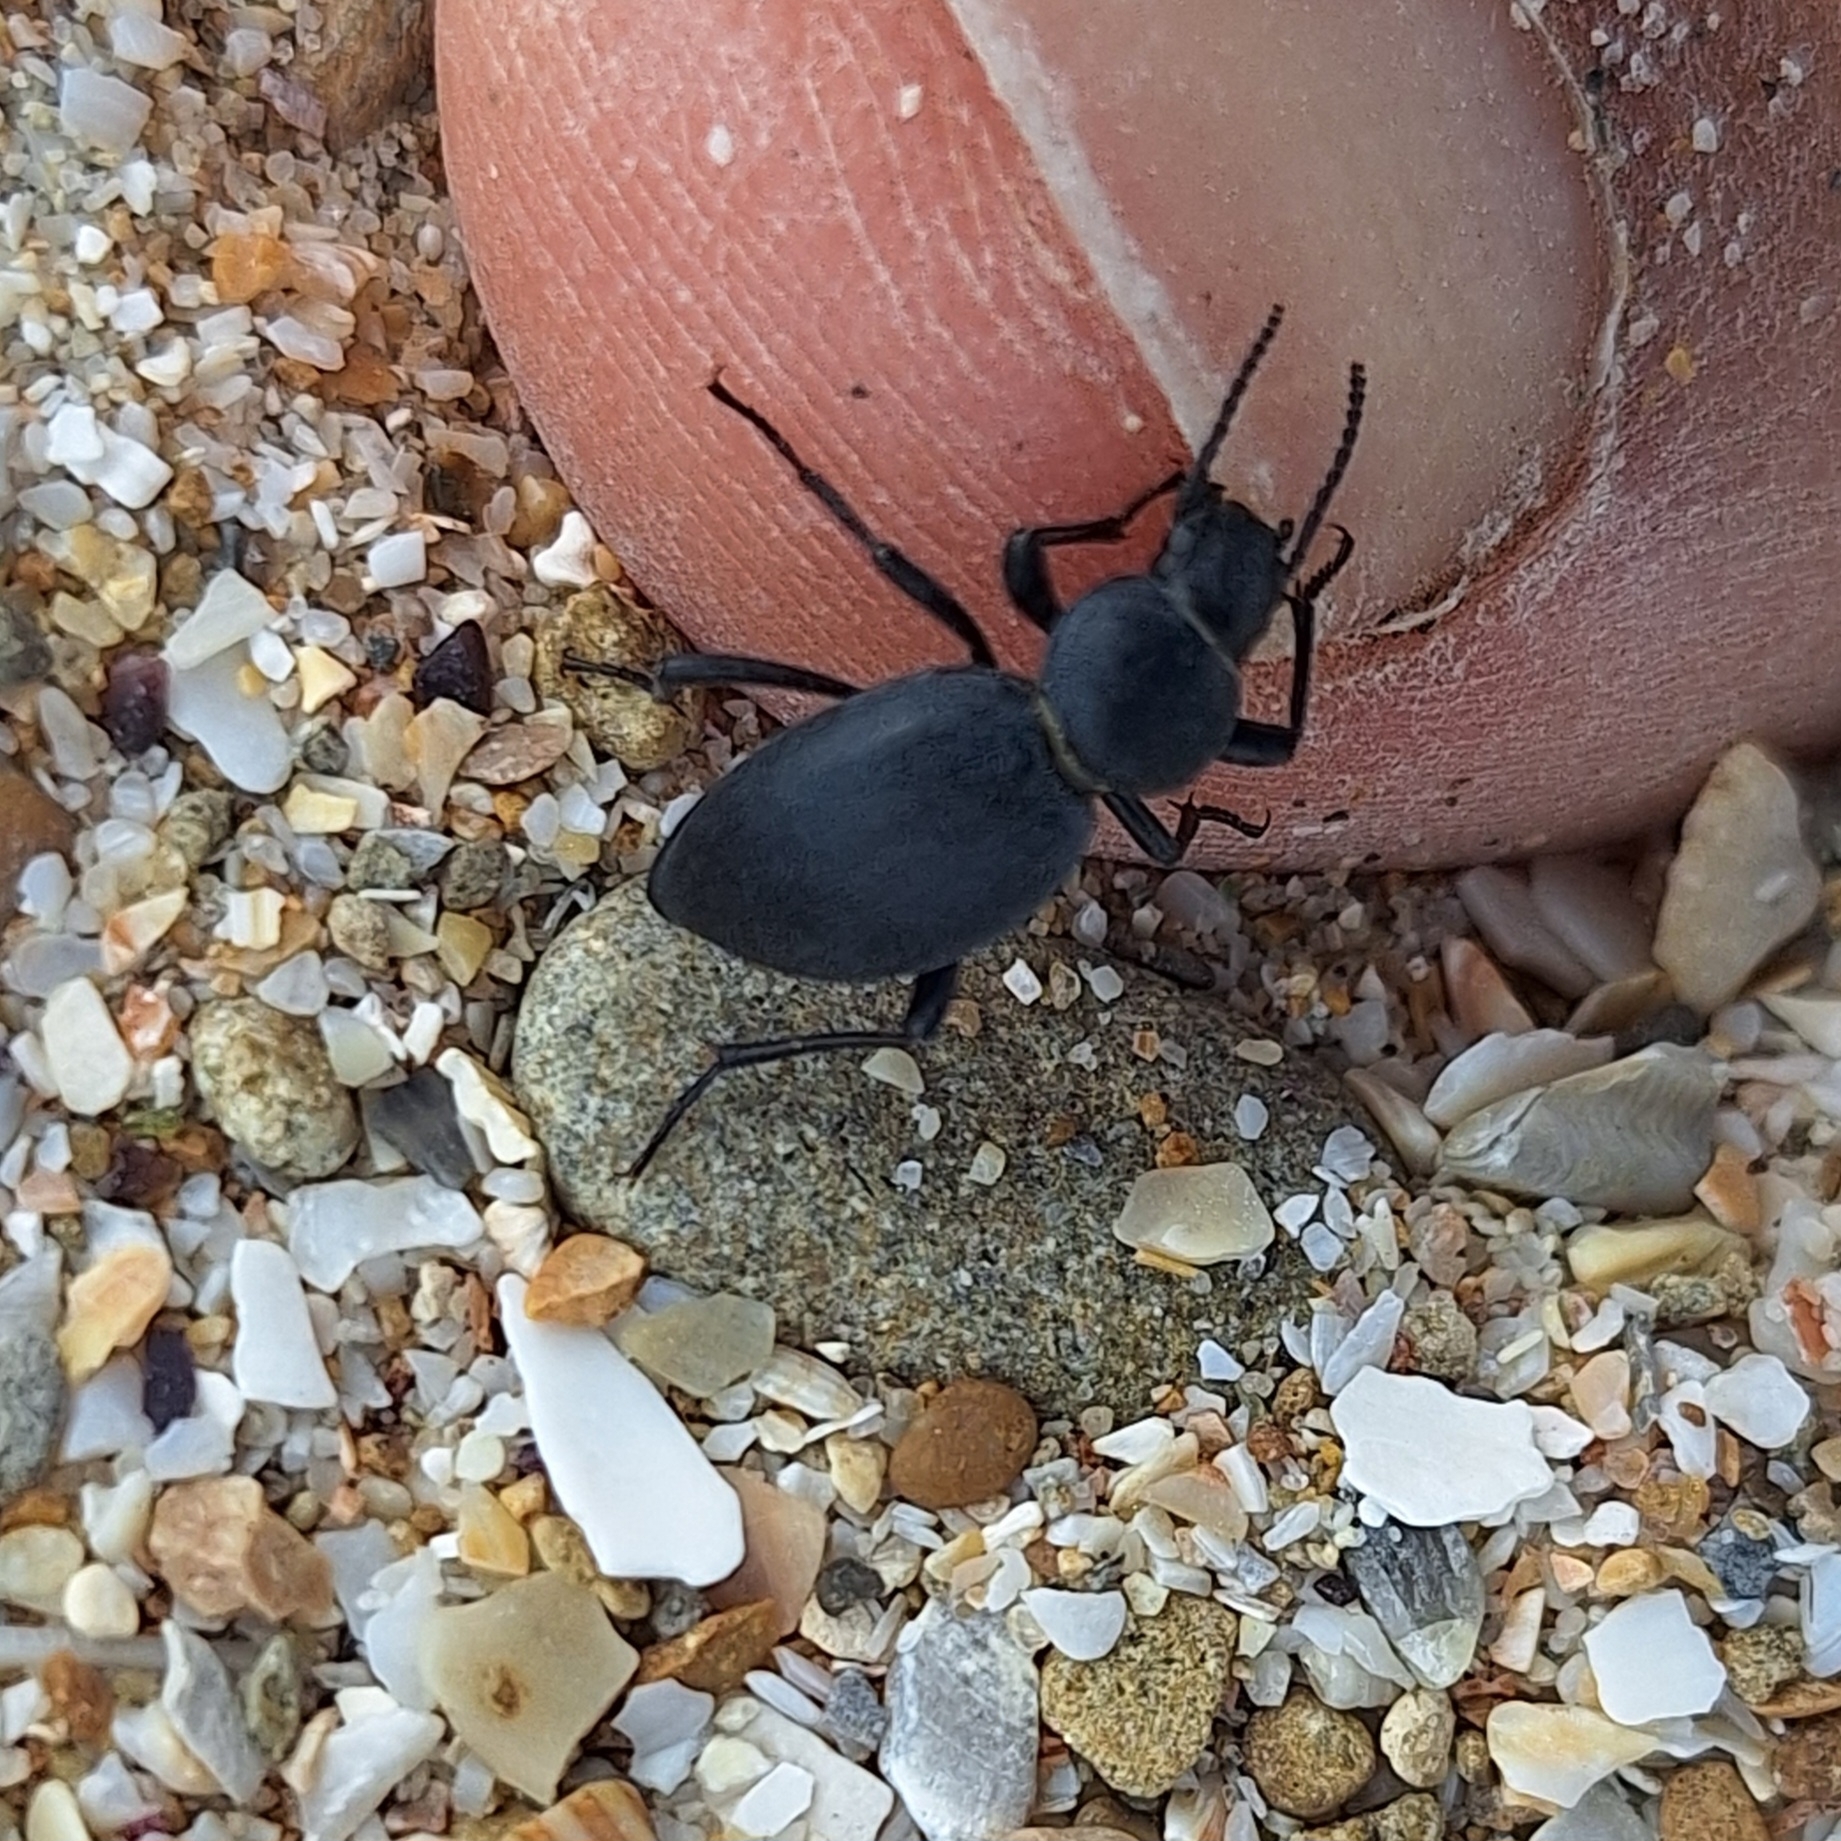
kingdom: Animalia
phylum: Arthropoda
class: Insecta
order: Coleoptera
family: Tenebrionidae
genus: Tentyria
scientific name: Tentyria mucronata
